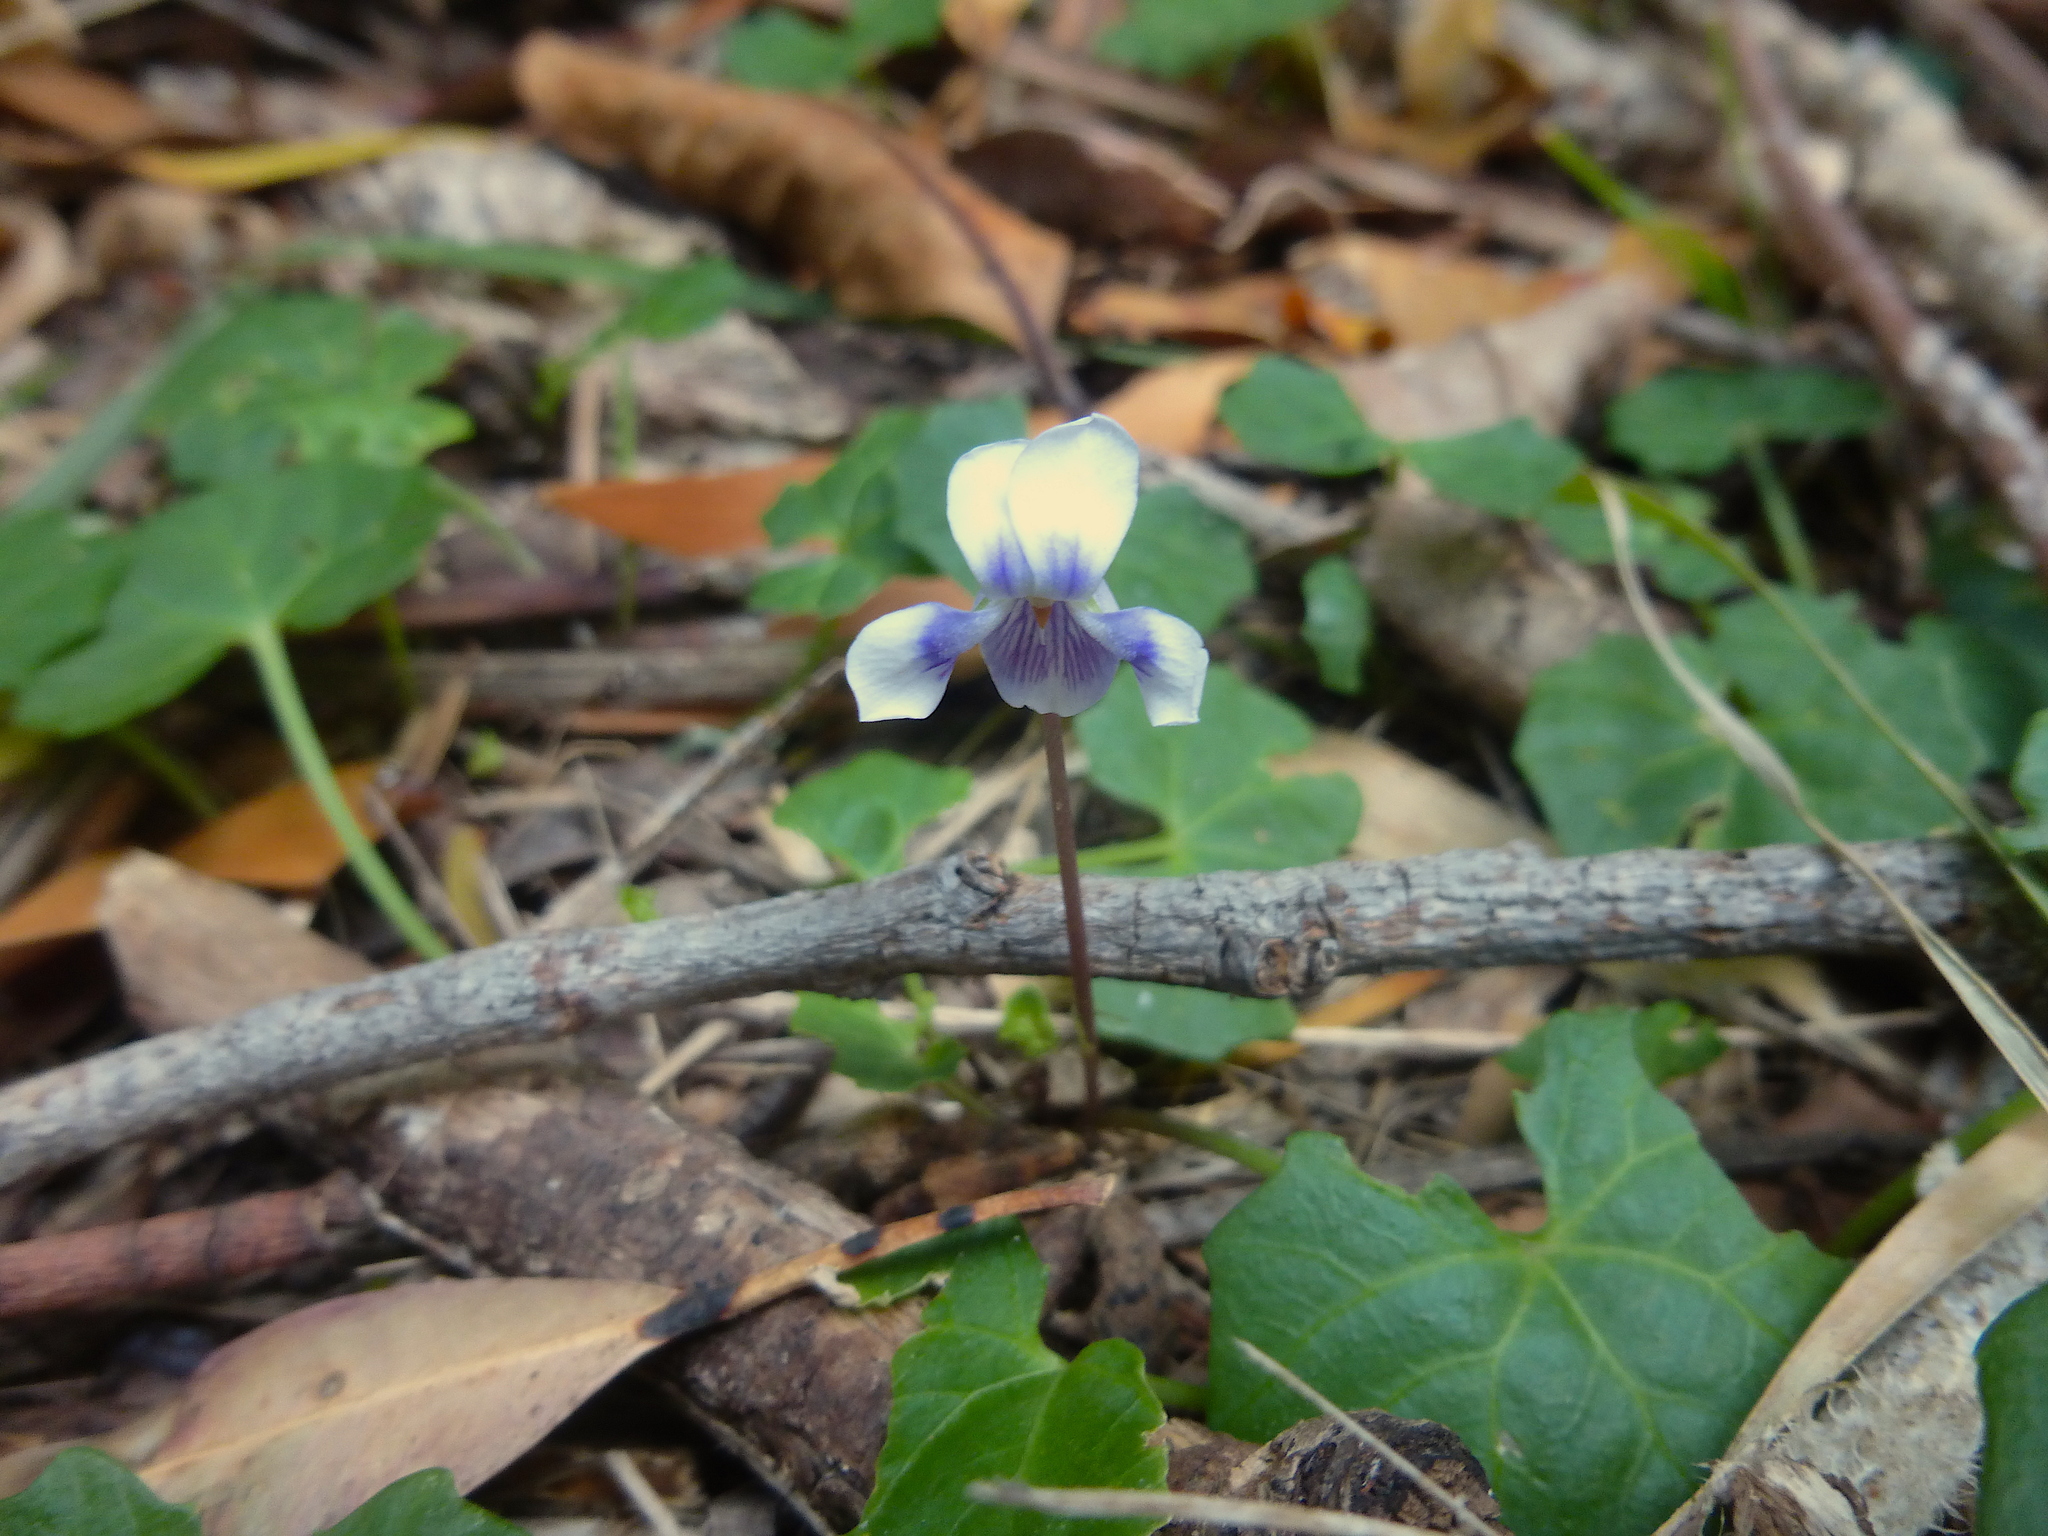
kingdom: Plantae
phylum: Tracheophyta
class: Magnoliopsida
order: Malpighiales
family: Violaceae
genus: Viola
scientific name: Viola hederacea
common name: Australian violet
